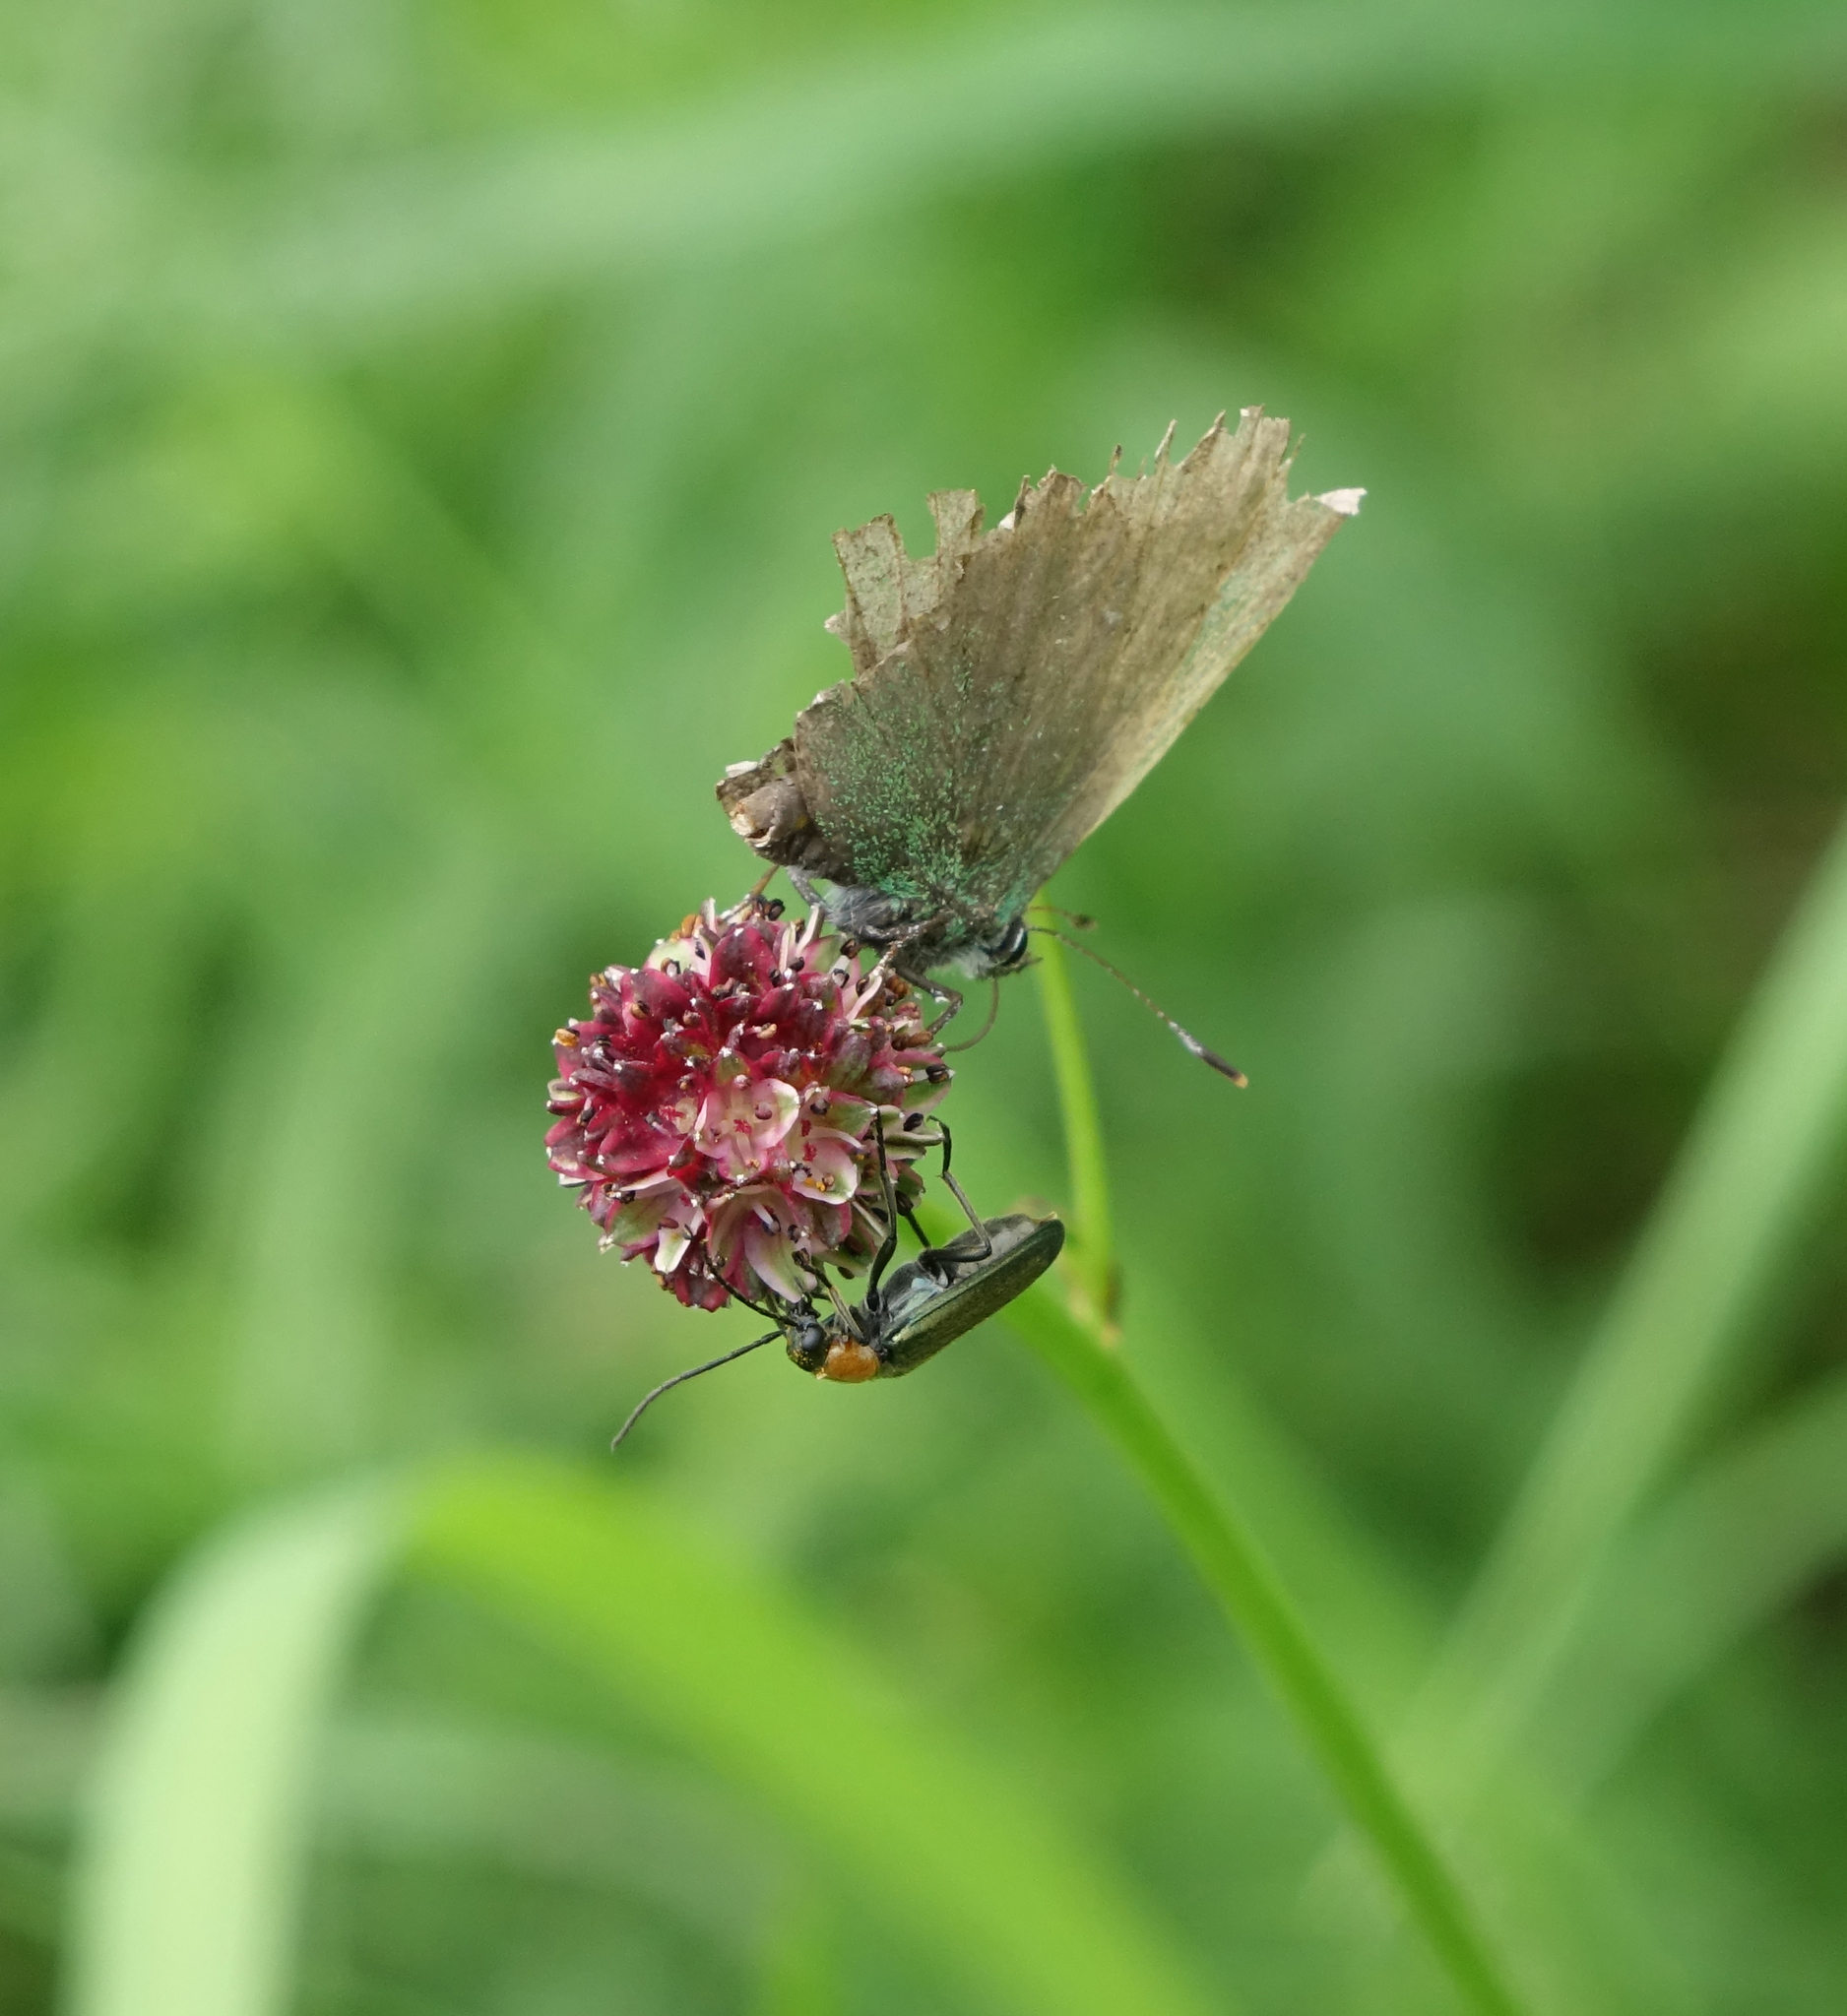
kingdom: Animalia
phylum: Arthropoda
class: Insecta
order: Lepidoptera
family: Lycaenidae
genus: Callophrys
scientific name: Callophrys rubi
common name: Green hairstreak
